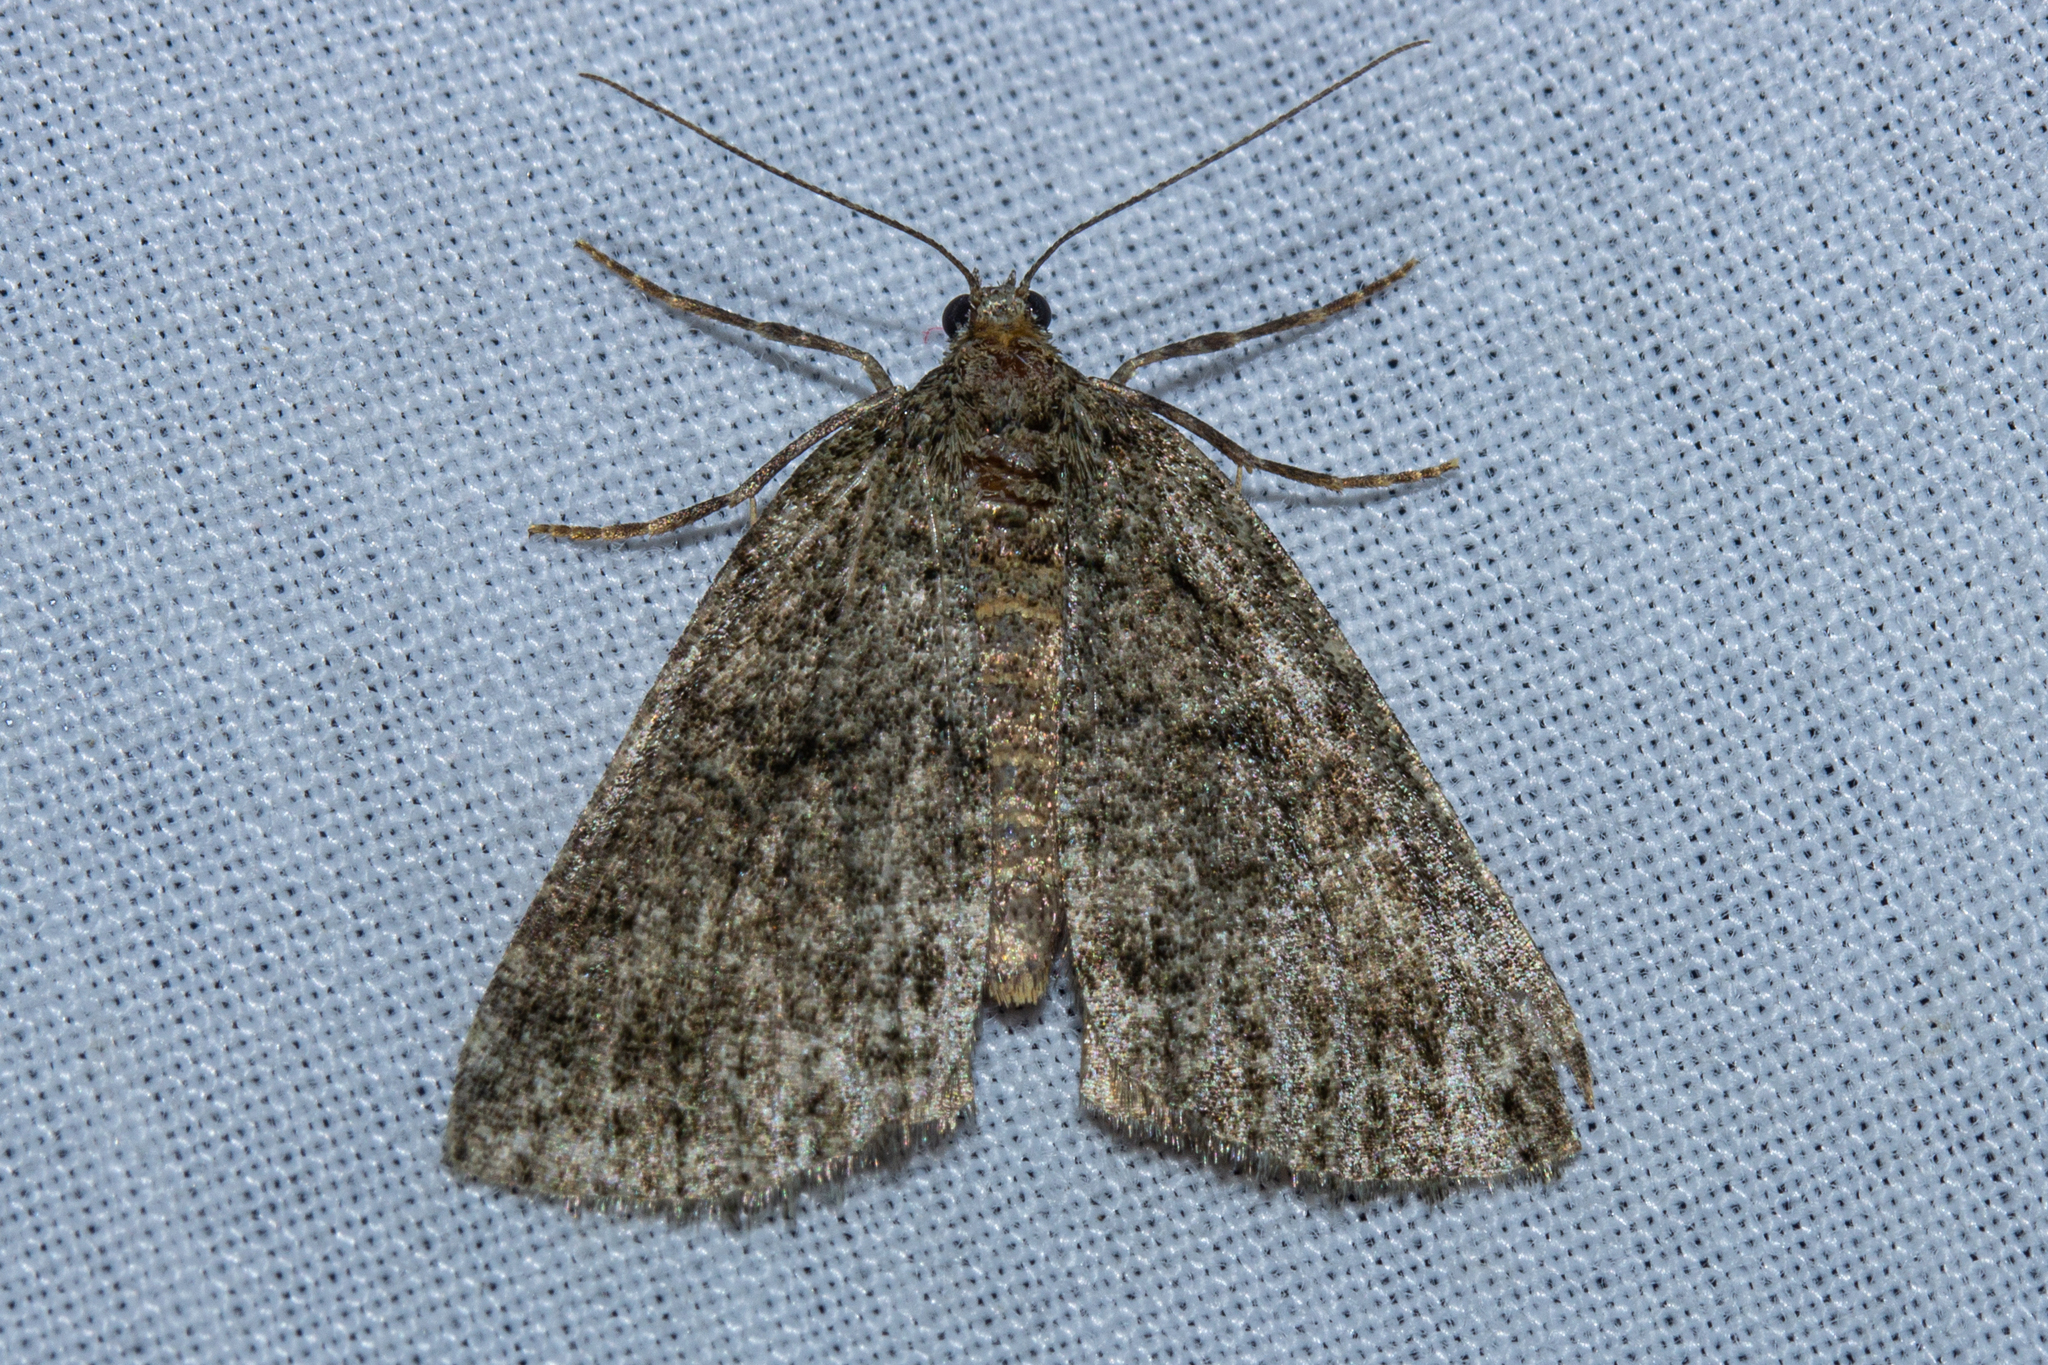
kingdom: Animalia
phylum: Arthropoda
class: Insecta
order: Lepidoptera
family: Geometridae
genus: Pseudocoremia
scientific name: Pseudocoremia indistincta
